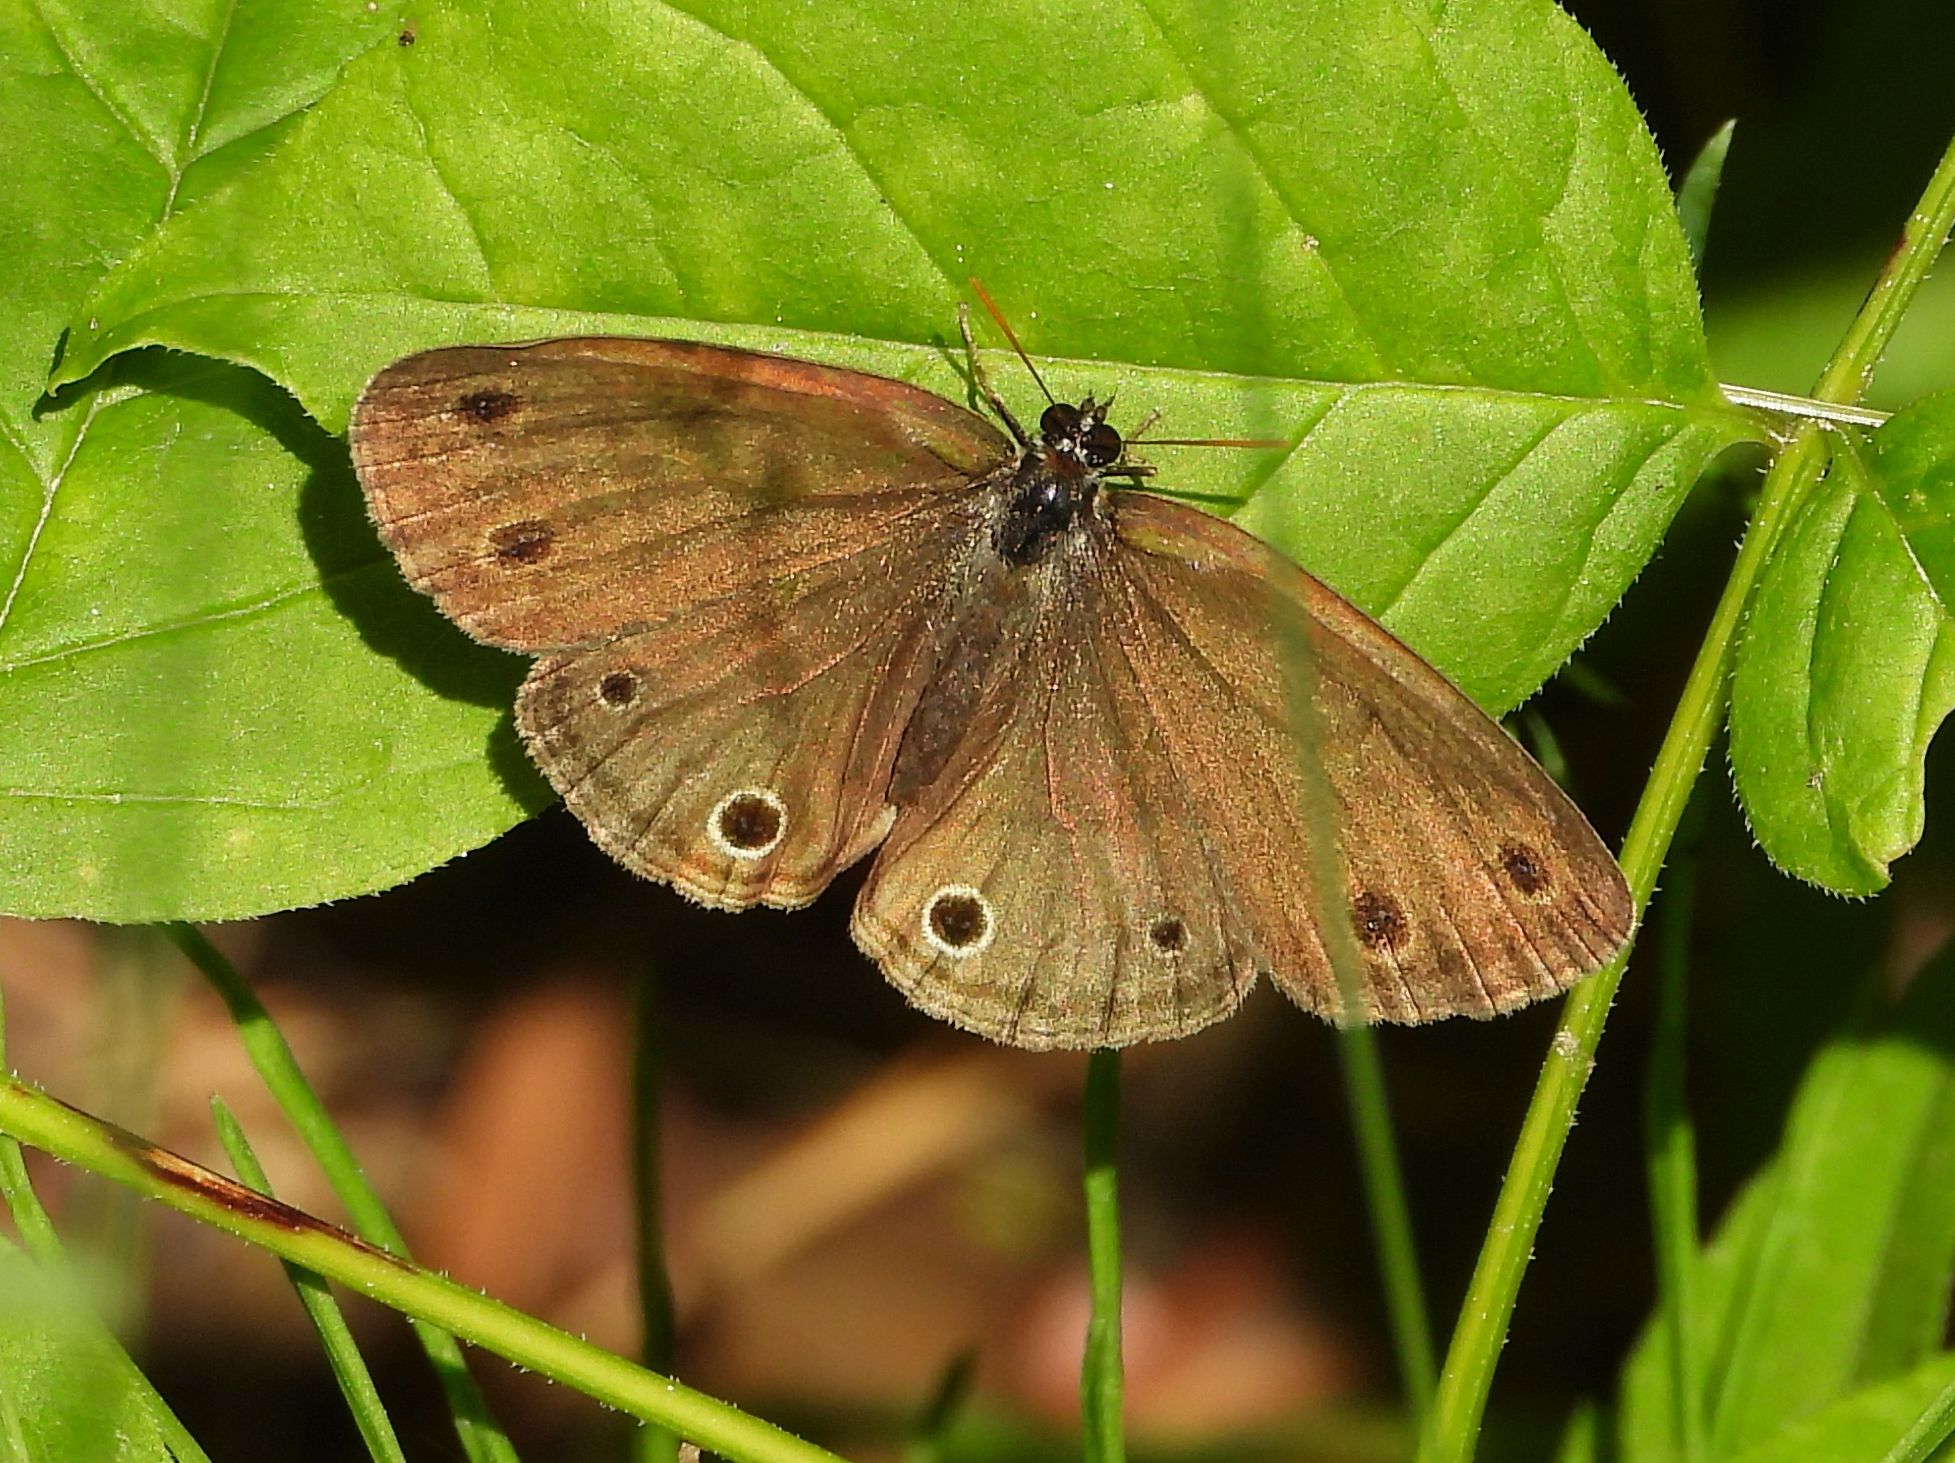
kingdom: Animalia
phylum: Arthropoda
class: Insecta
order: Lepidoptera
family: Nymphalidae
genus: Euptychia
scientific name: Euptychia cymela
